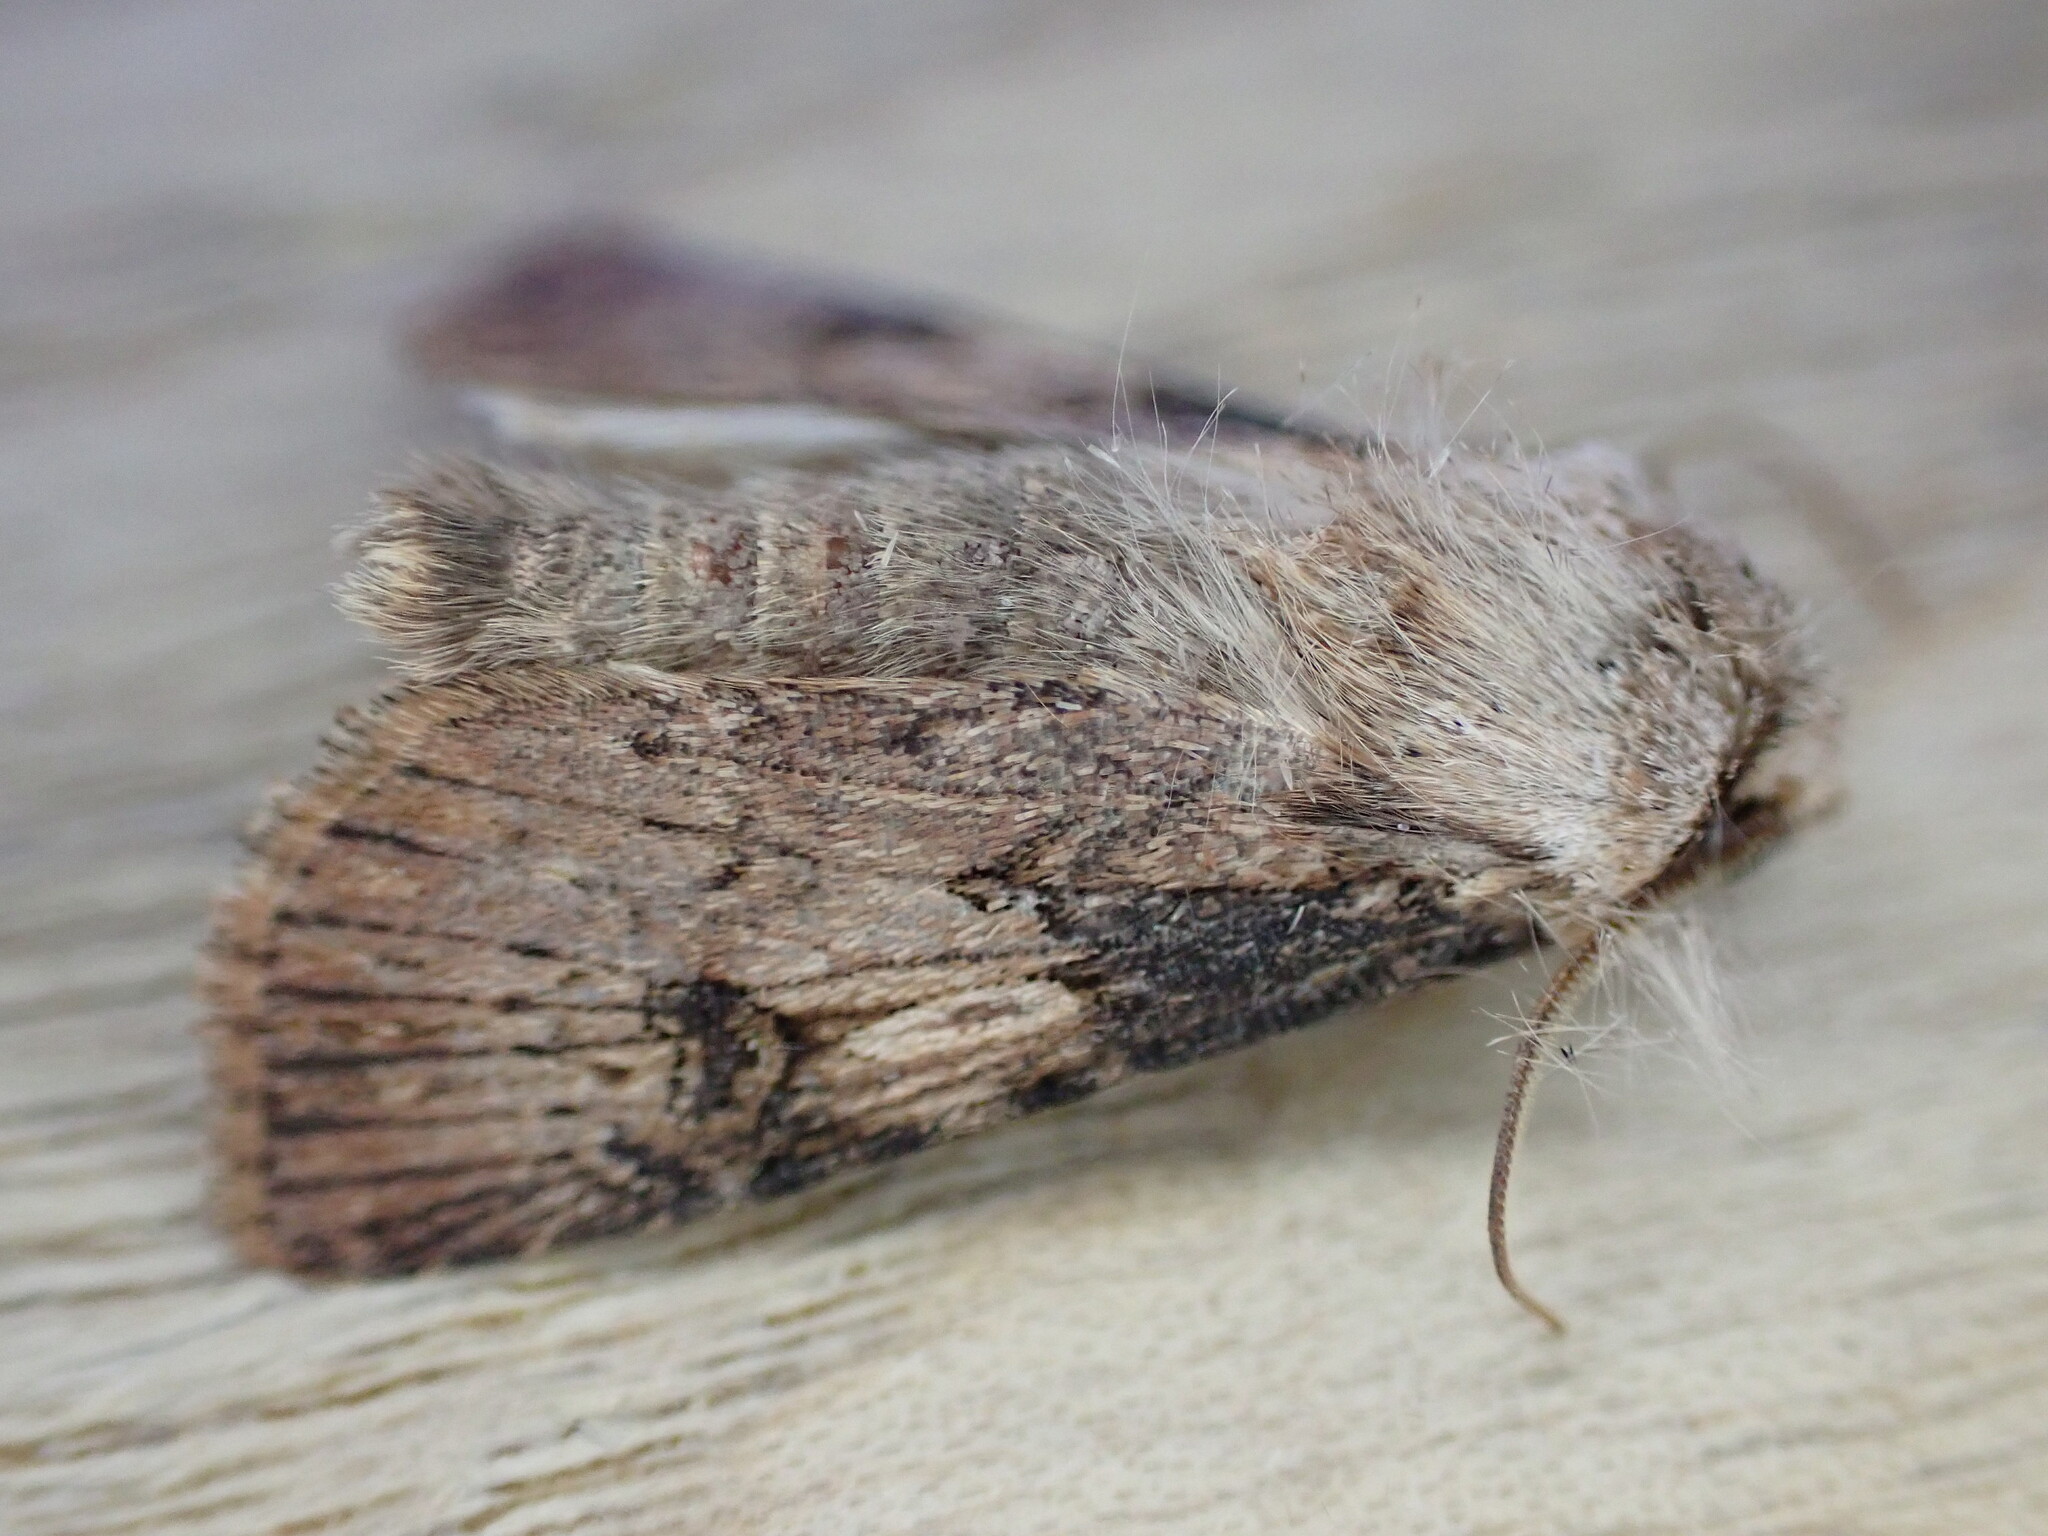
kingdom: Animalia
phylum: Arthropoda
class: Insecta
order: Lepidoptera
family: Noctuidae
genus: Agrotis
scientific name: Agrotis puta
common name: Shuttle-shaped dart
